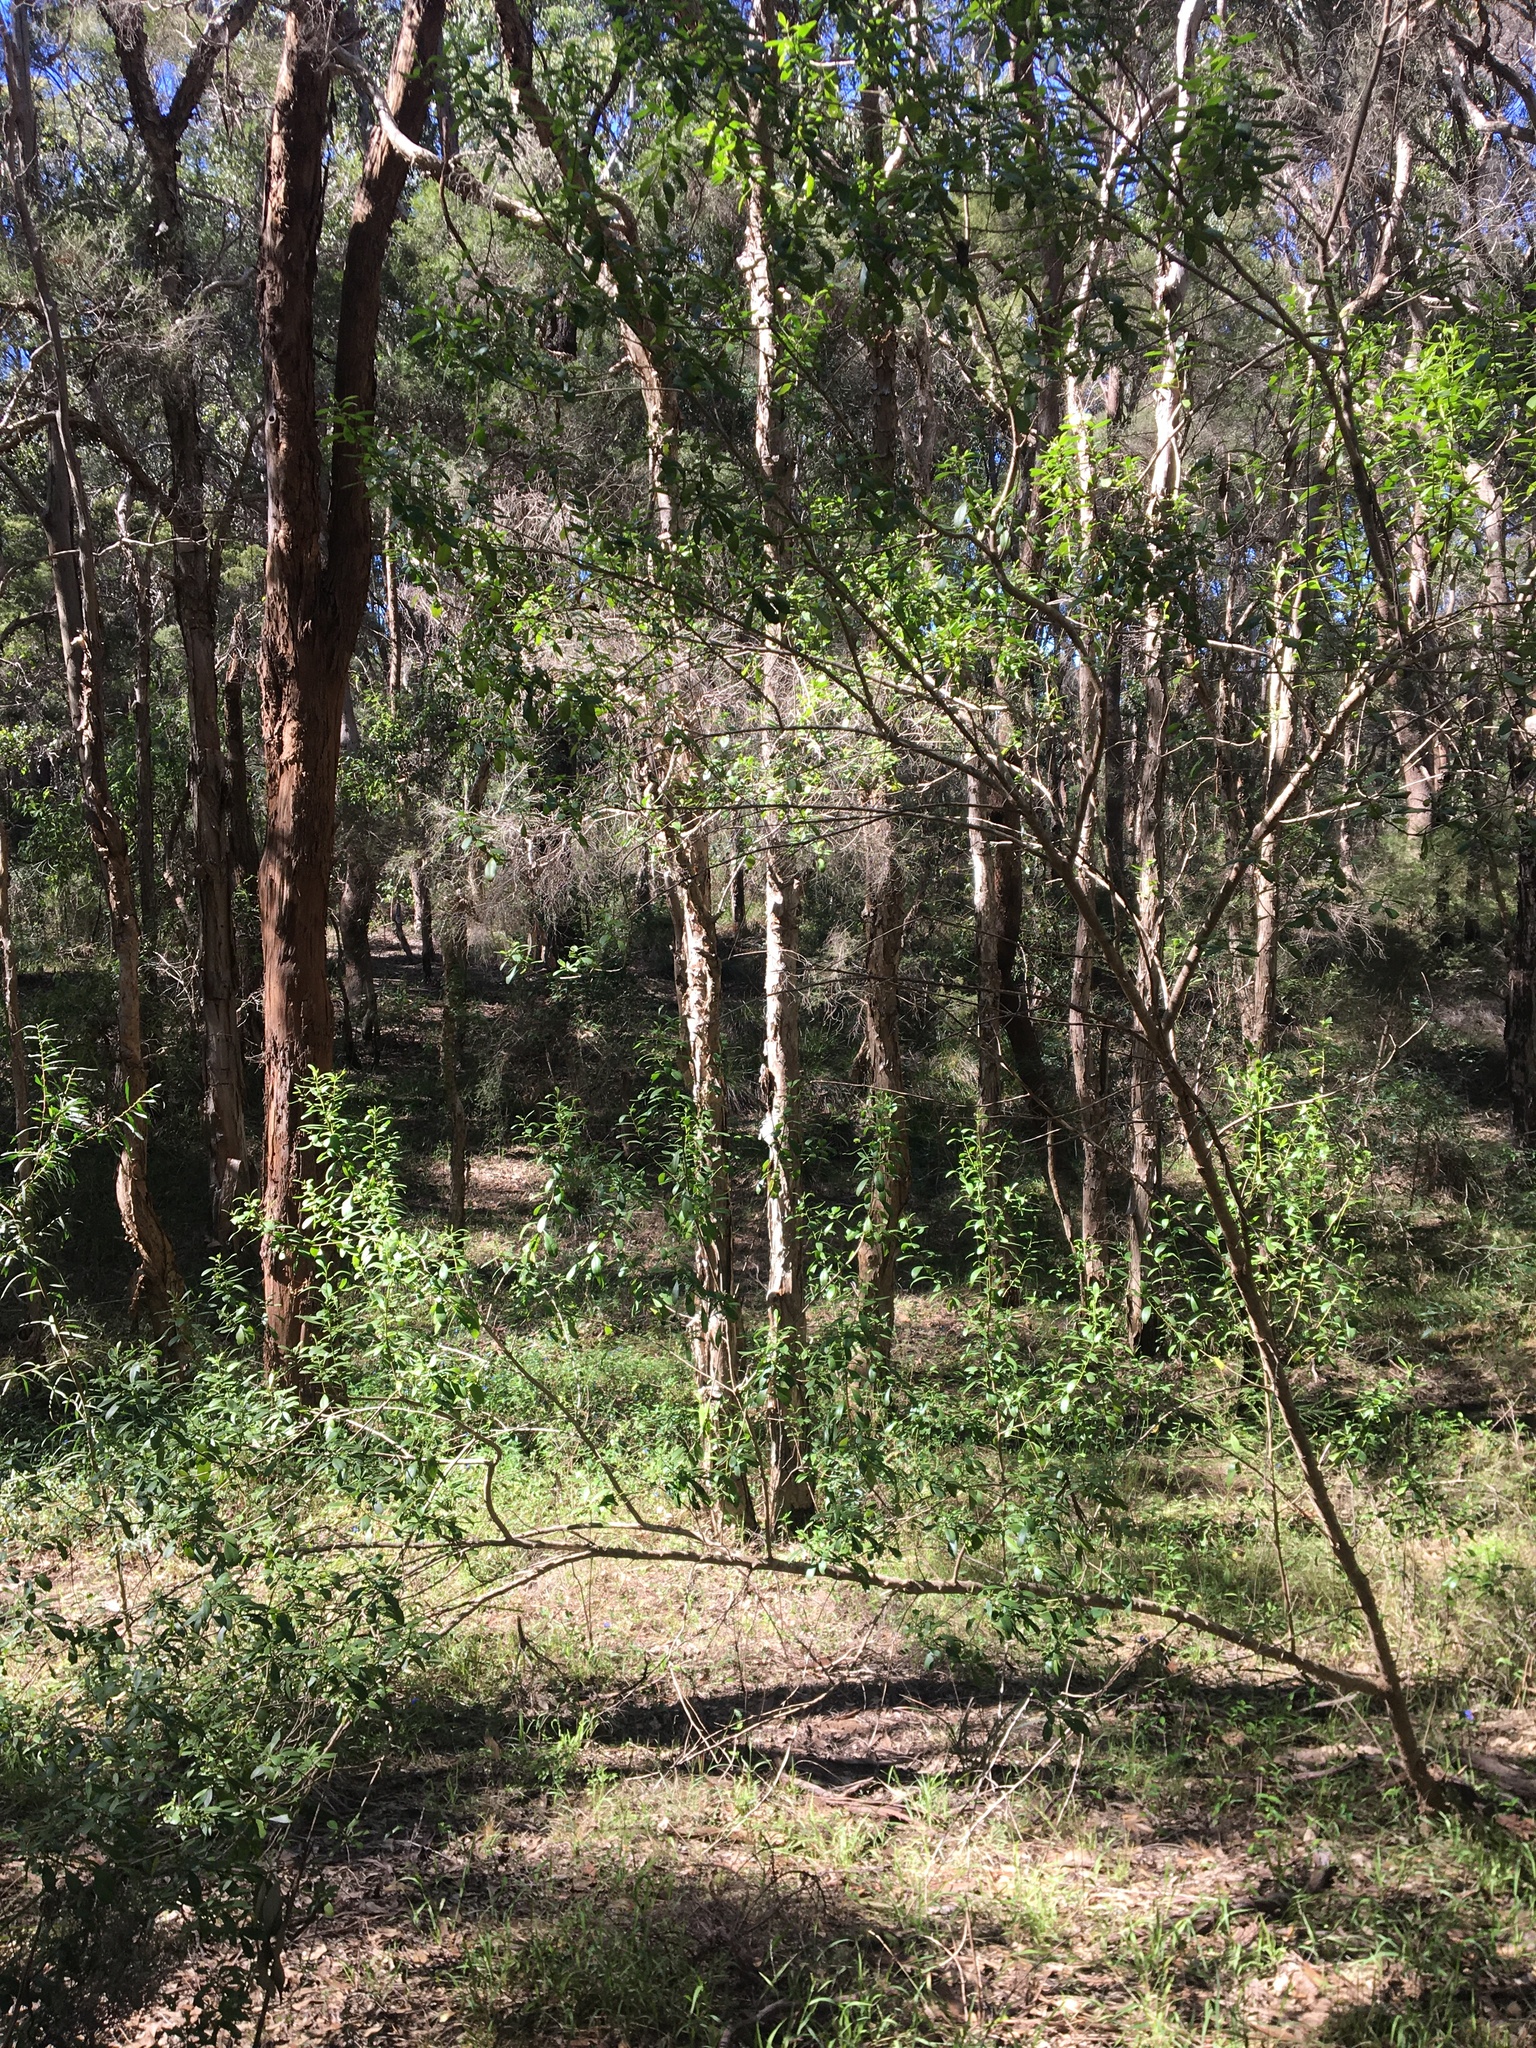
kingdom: Plantae
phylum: Tracheophyta
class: Magnoliopsida
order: Lamiales
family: Scrophulariaceae
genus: Myoporum
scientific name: Myoporum boninense
